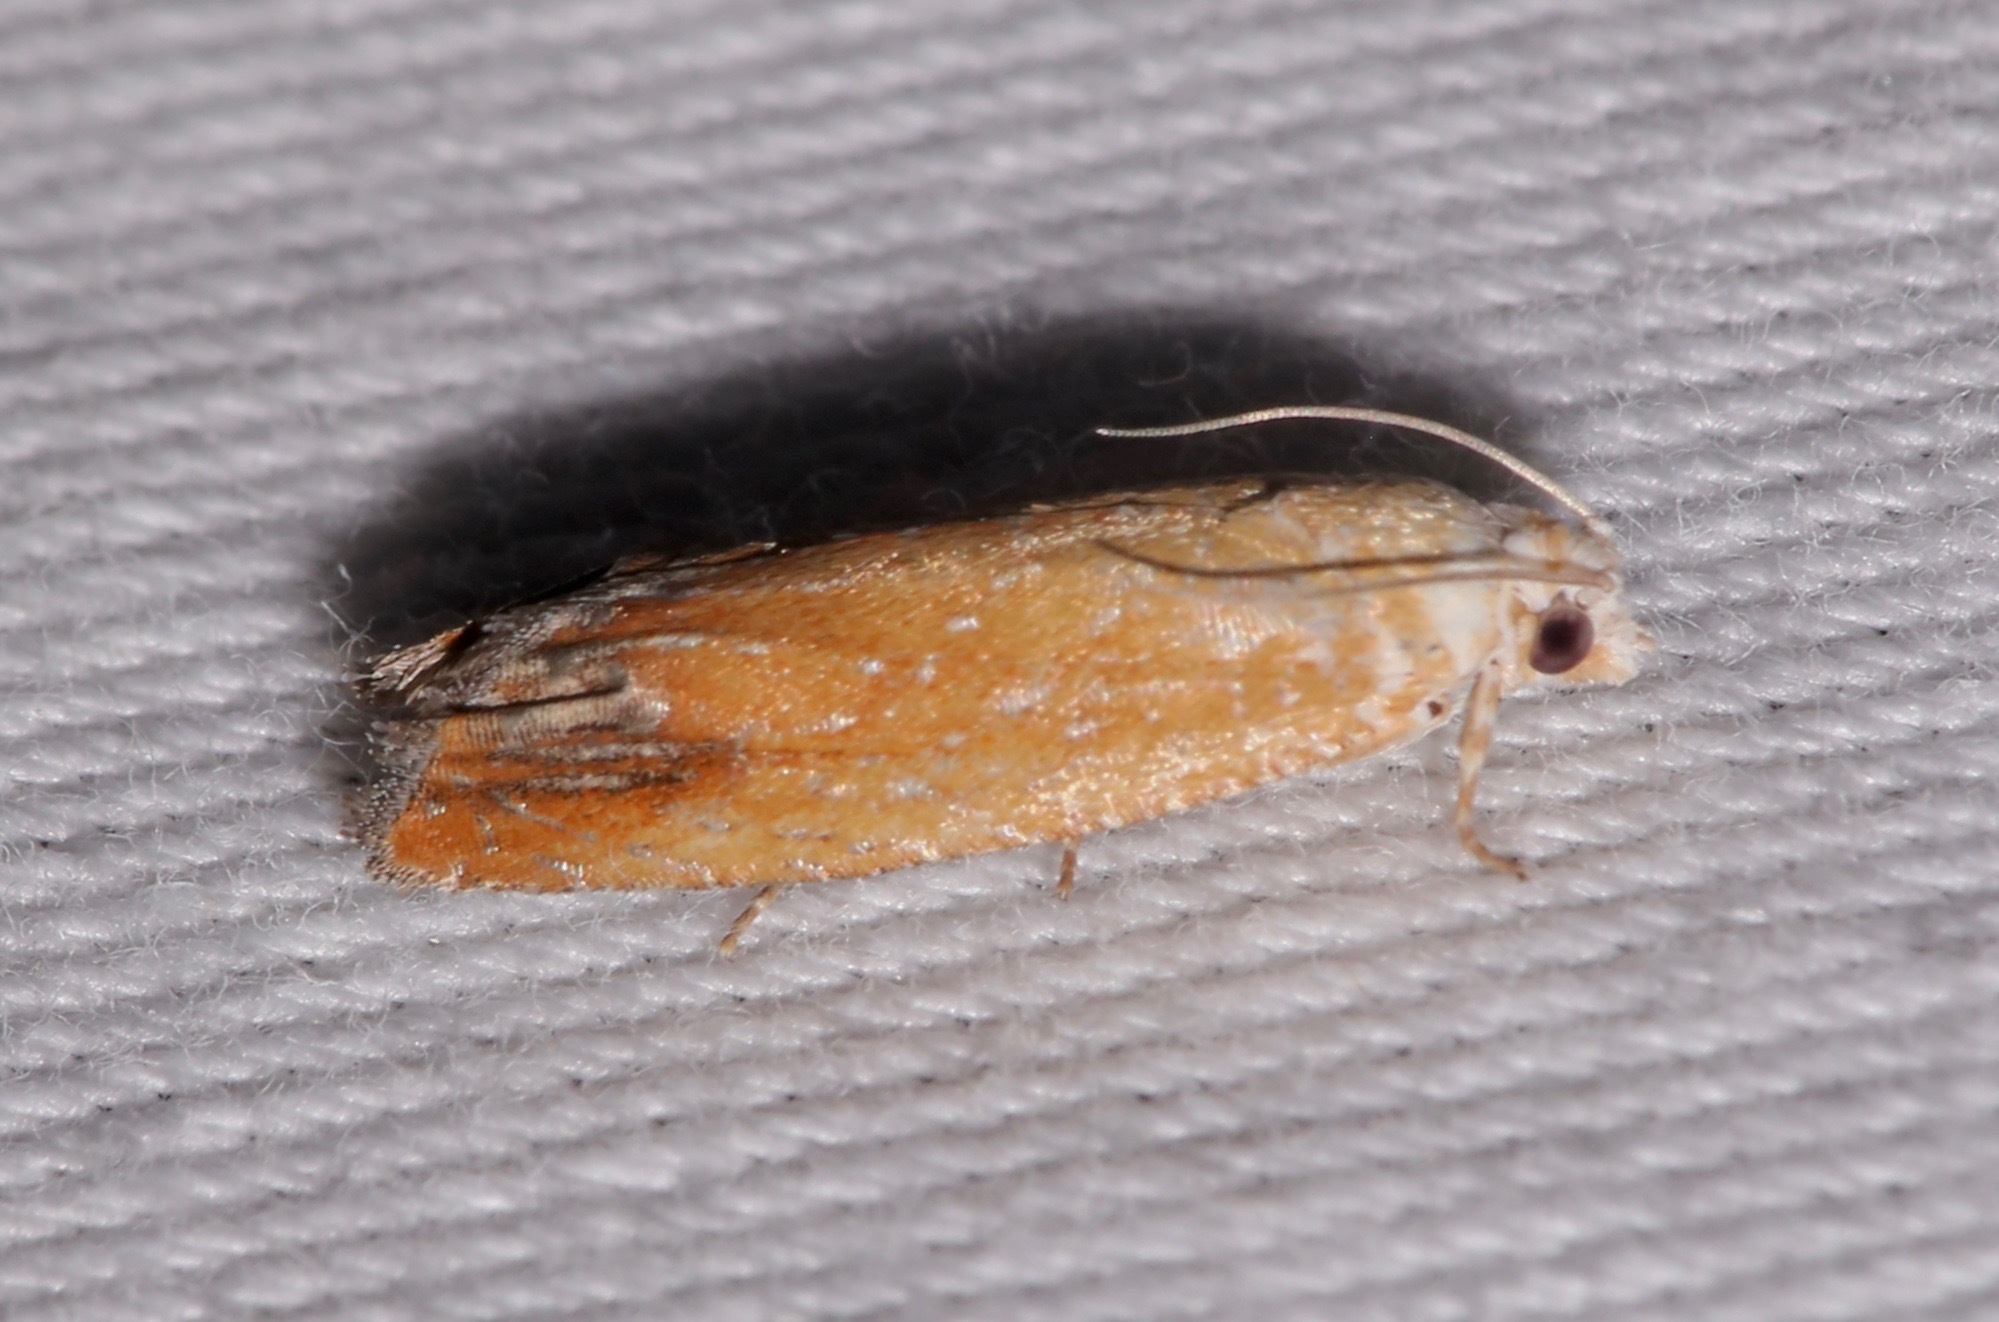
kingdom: Animalia
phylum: Arthropoda
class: Insecta
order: Lepidoptera
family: Tortricidae
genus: Eucosma
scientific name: Eucosma floridana
